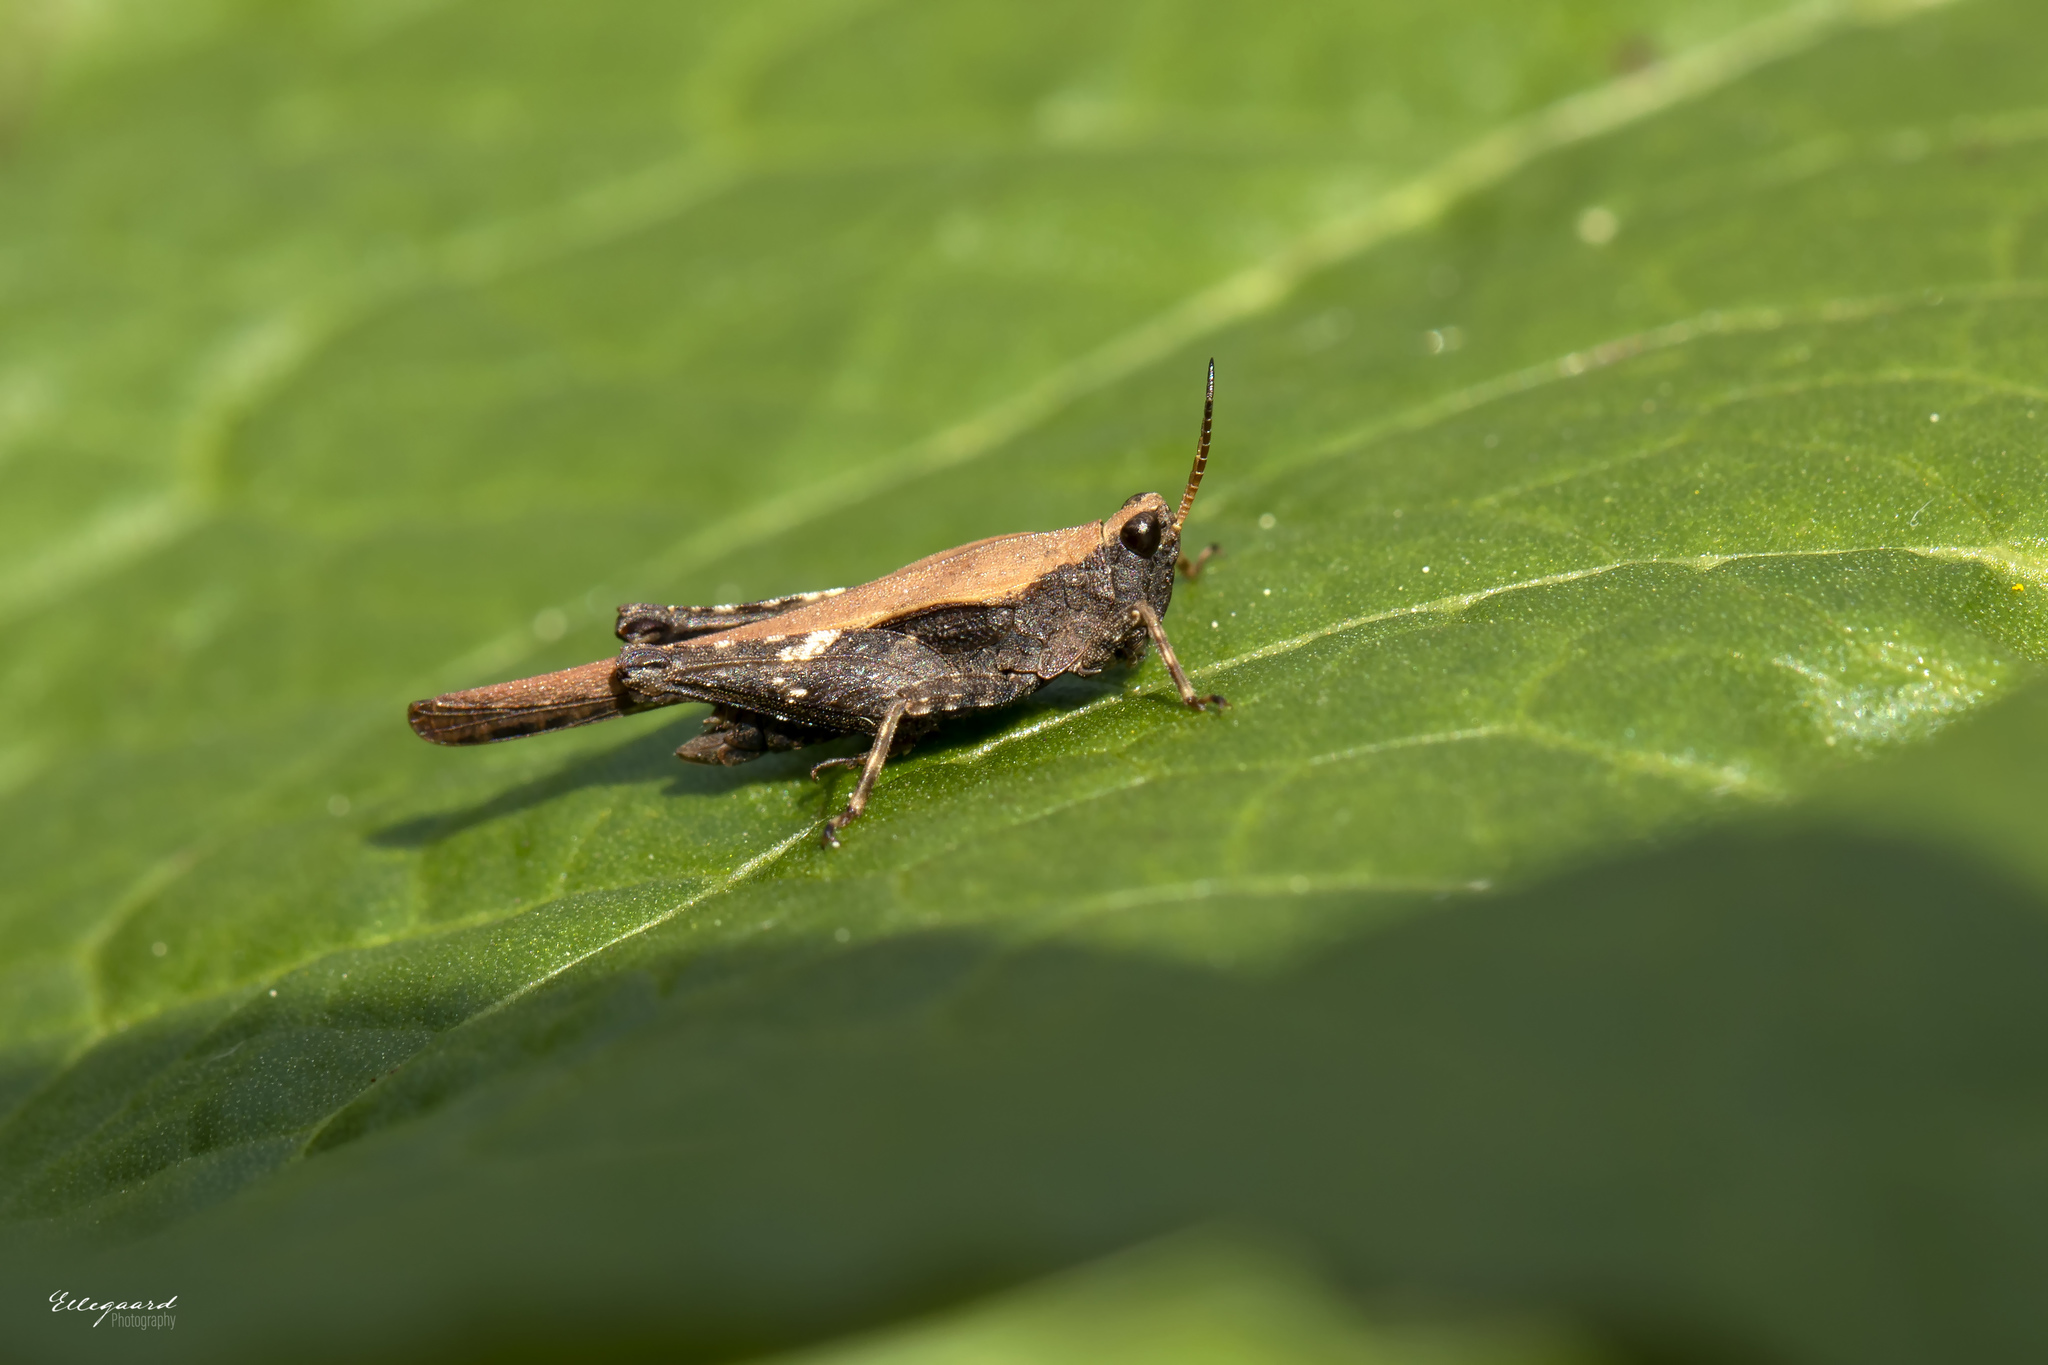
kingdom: Animalia
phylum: Arthropoda
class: Insecta
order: Orthoptera
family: Tetrigidae
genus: Tetrix
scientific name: Tetrix subulata
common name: Slender ground-hopper
